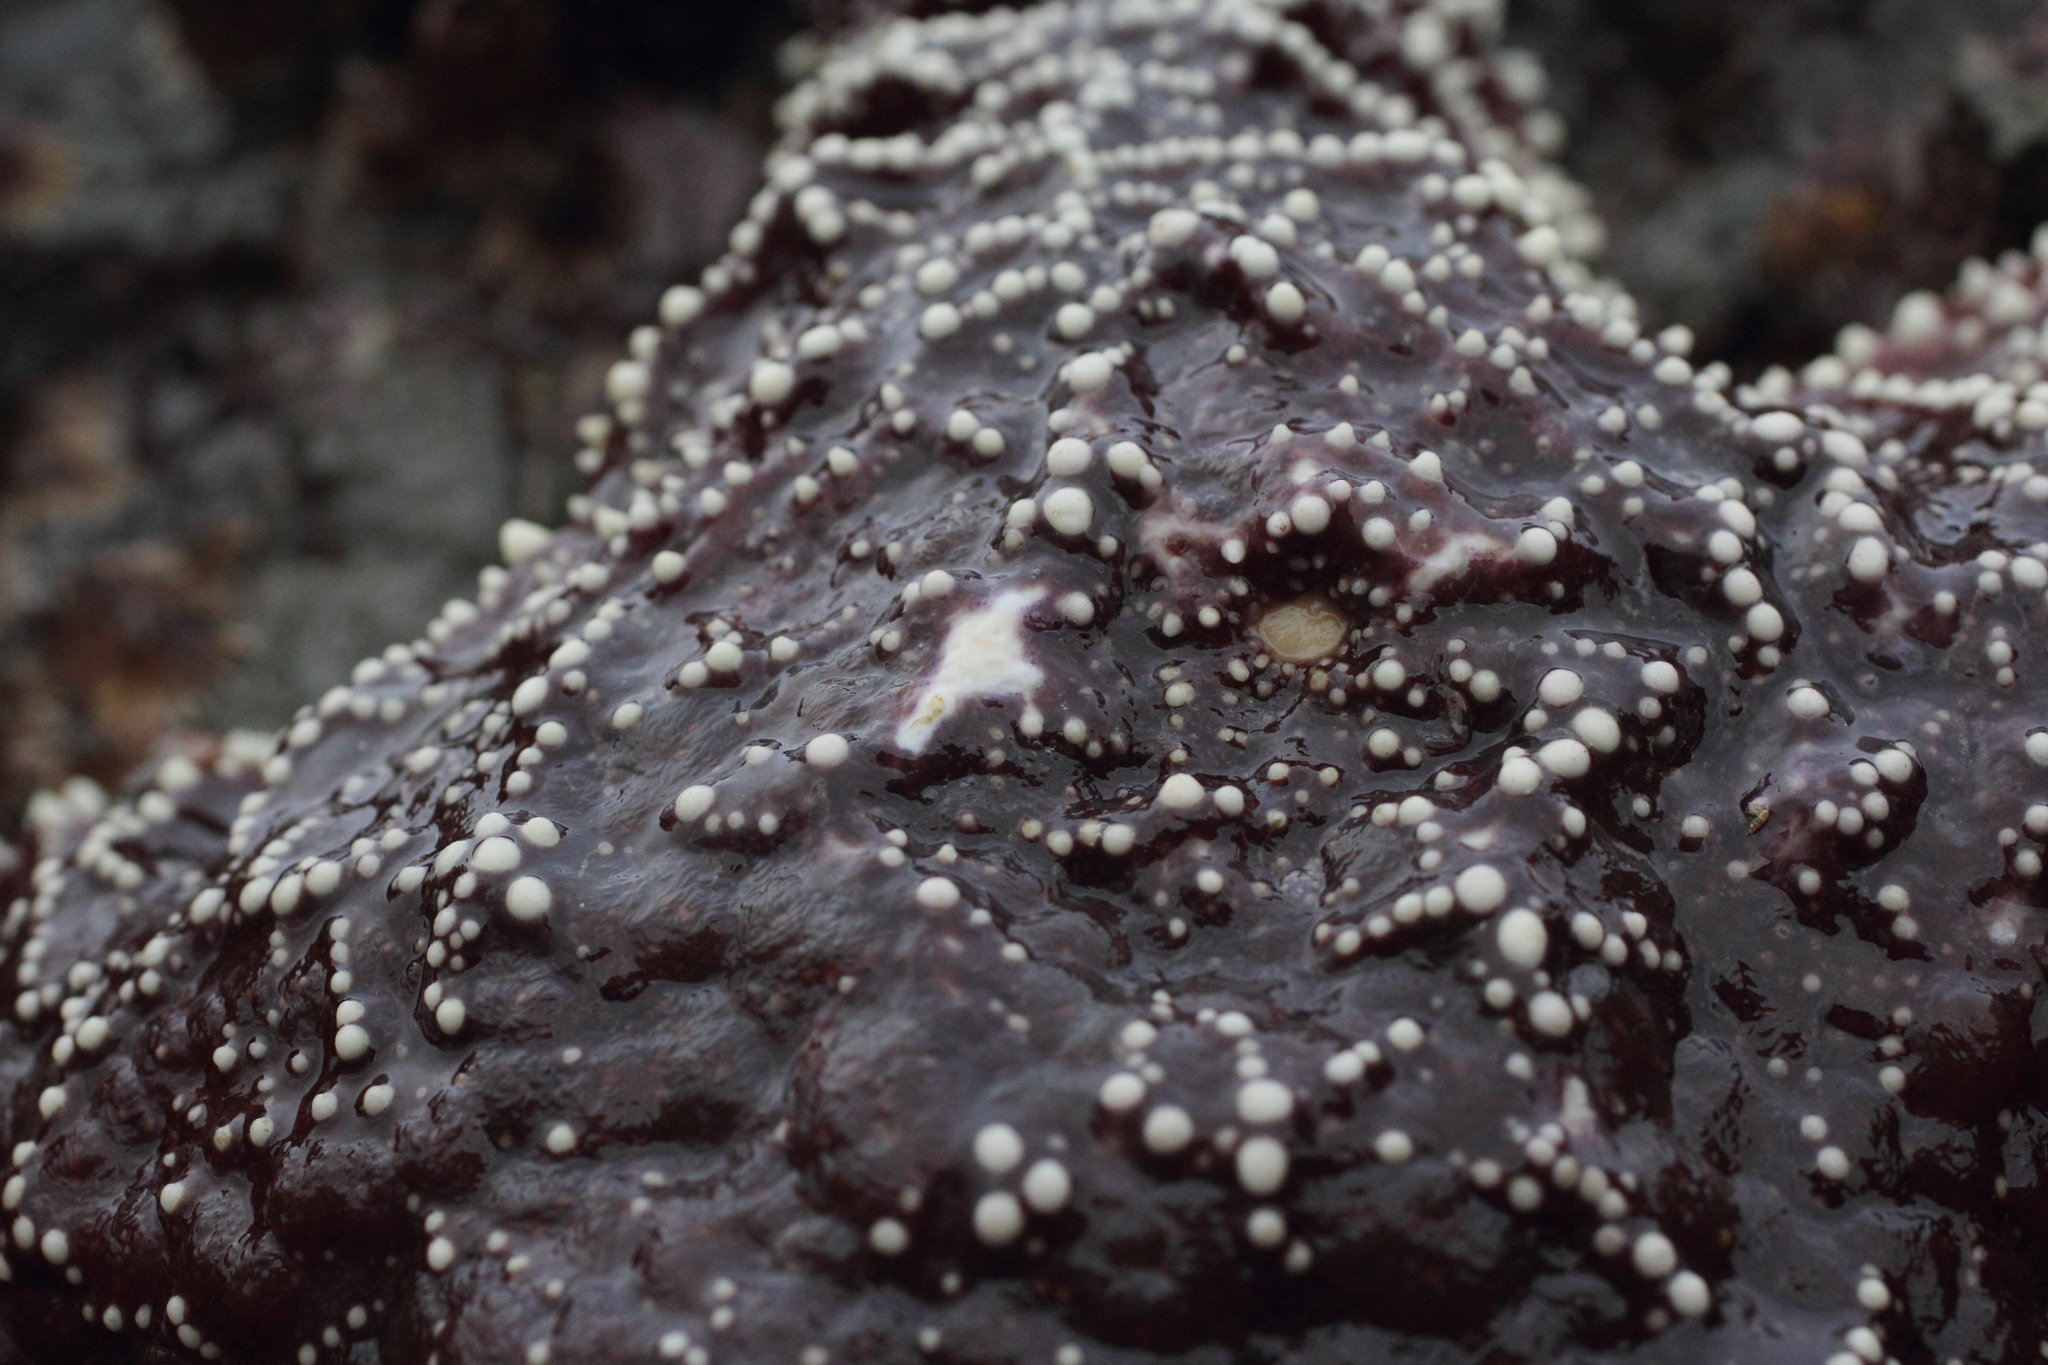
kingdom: Animalia
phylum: Echinodermata
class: Asteroidea
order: Forcipulatida
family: Asteriidae
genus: Pisaster
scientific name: Pisaster ochraceus
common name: Ochre stars
